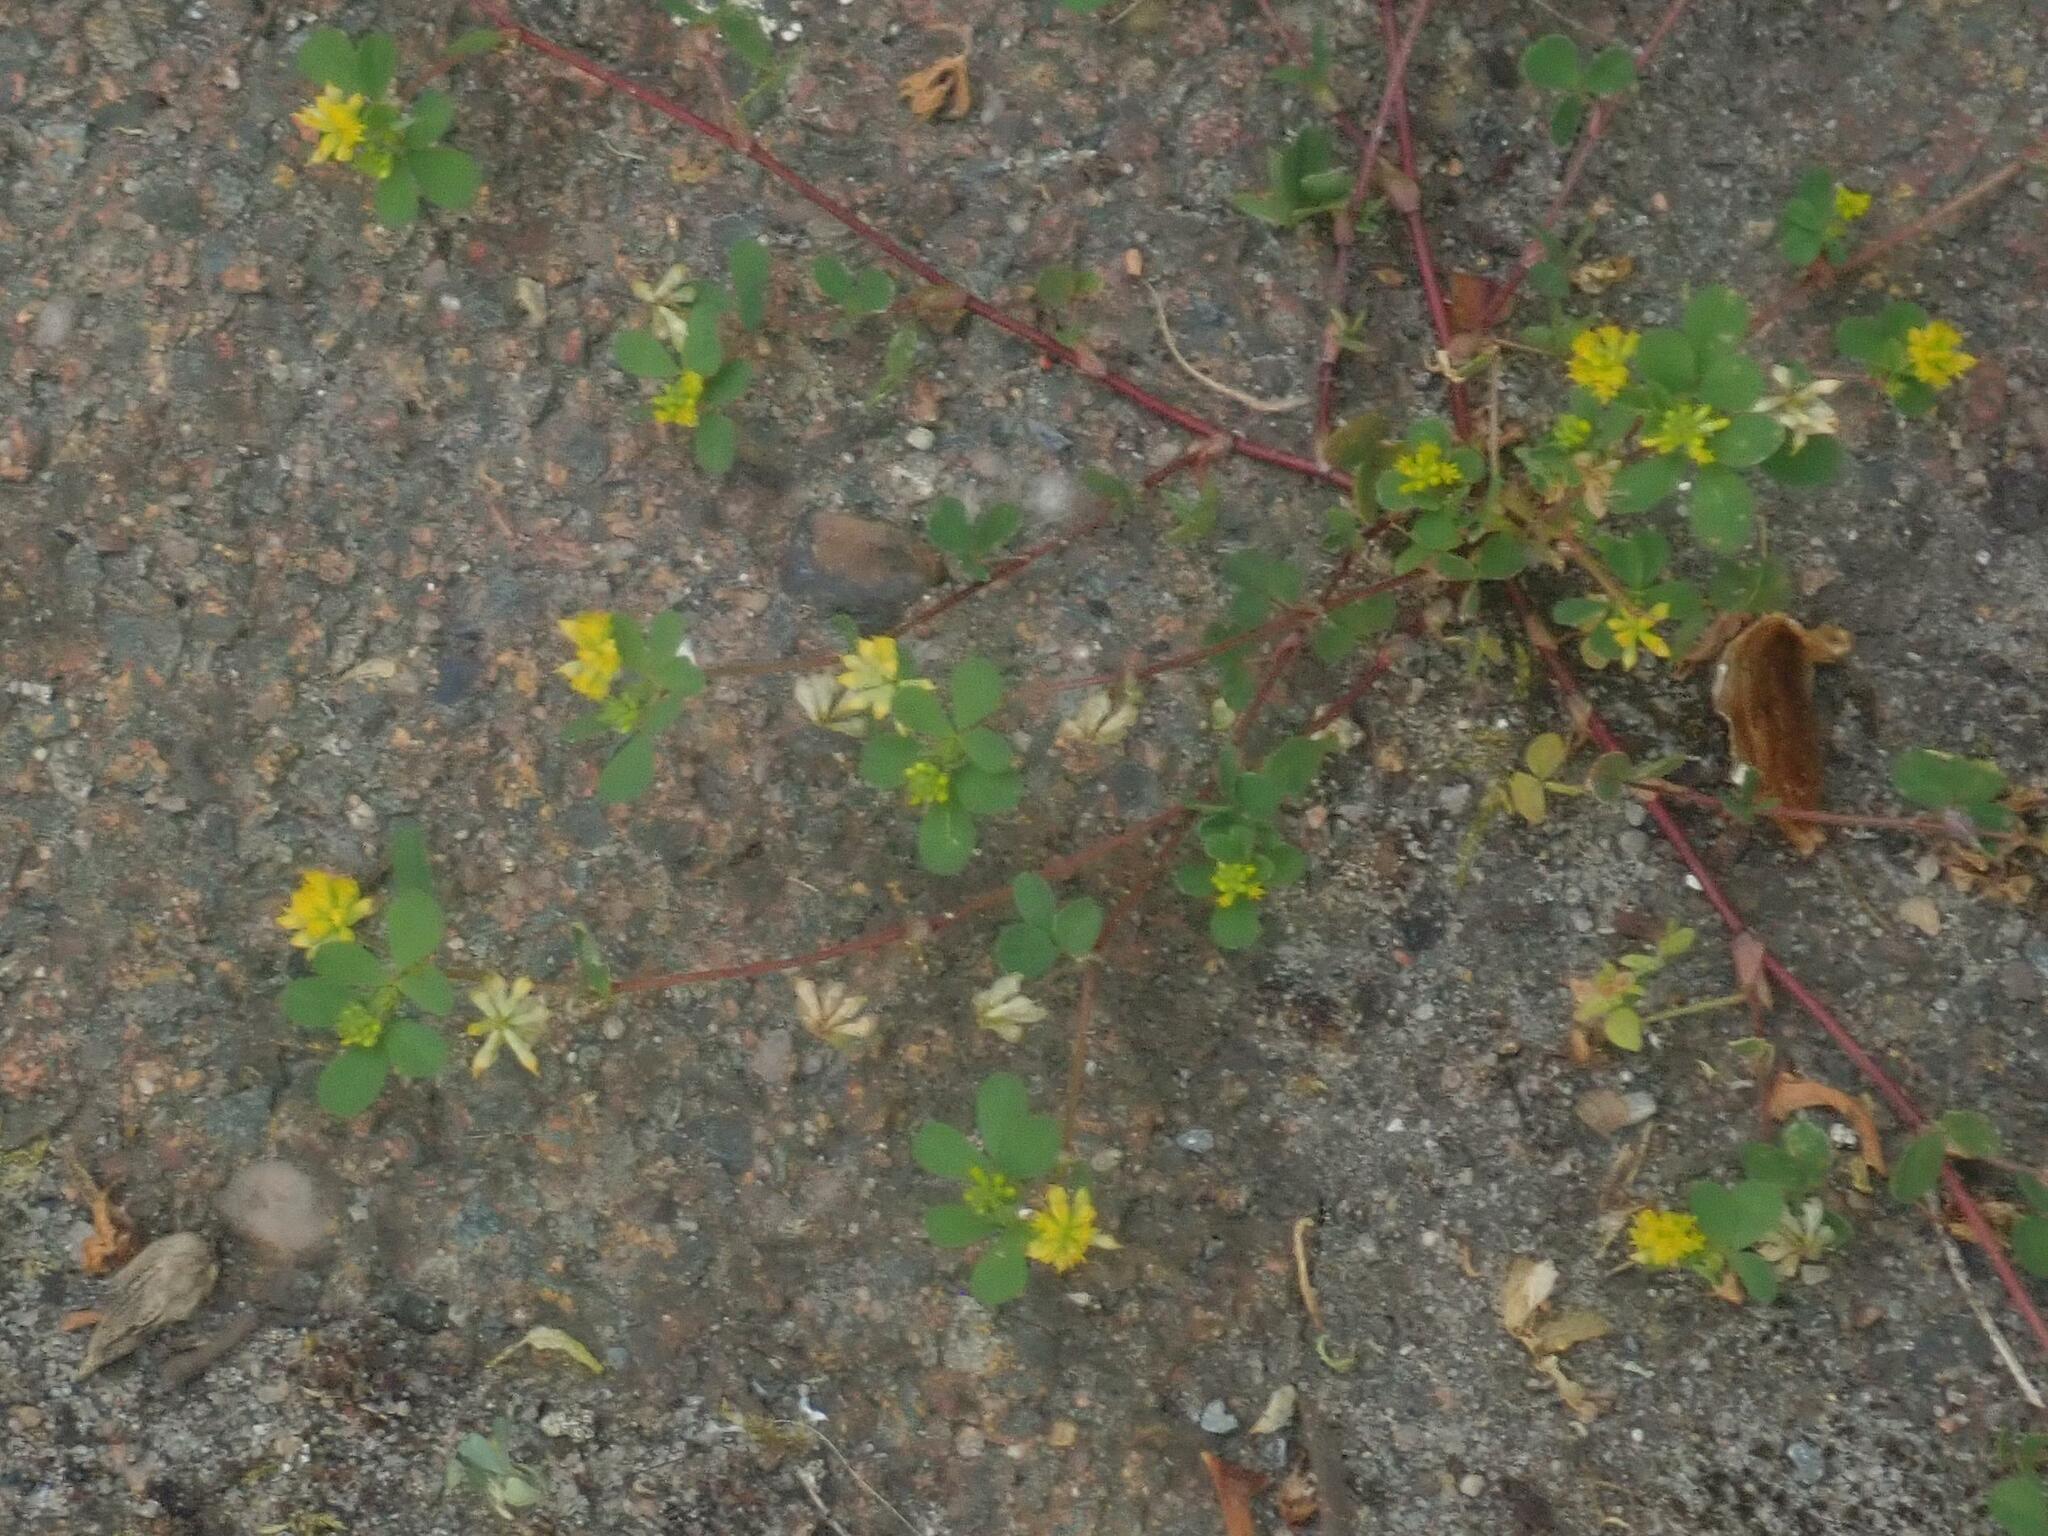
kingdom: Plantae
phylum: Tracheophyta
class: Magnoliopsida
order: Fabales
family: Fabaceae
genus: Trifolium
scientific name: Trifolium dubium
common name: Suckling clover
